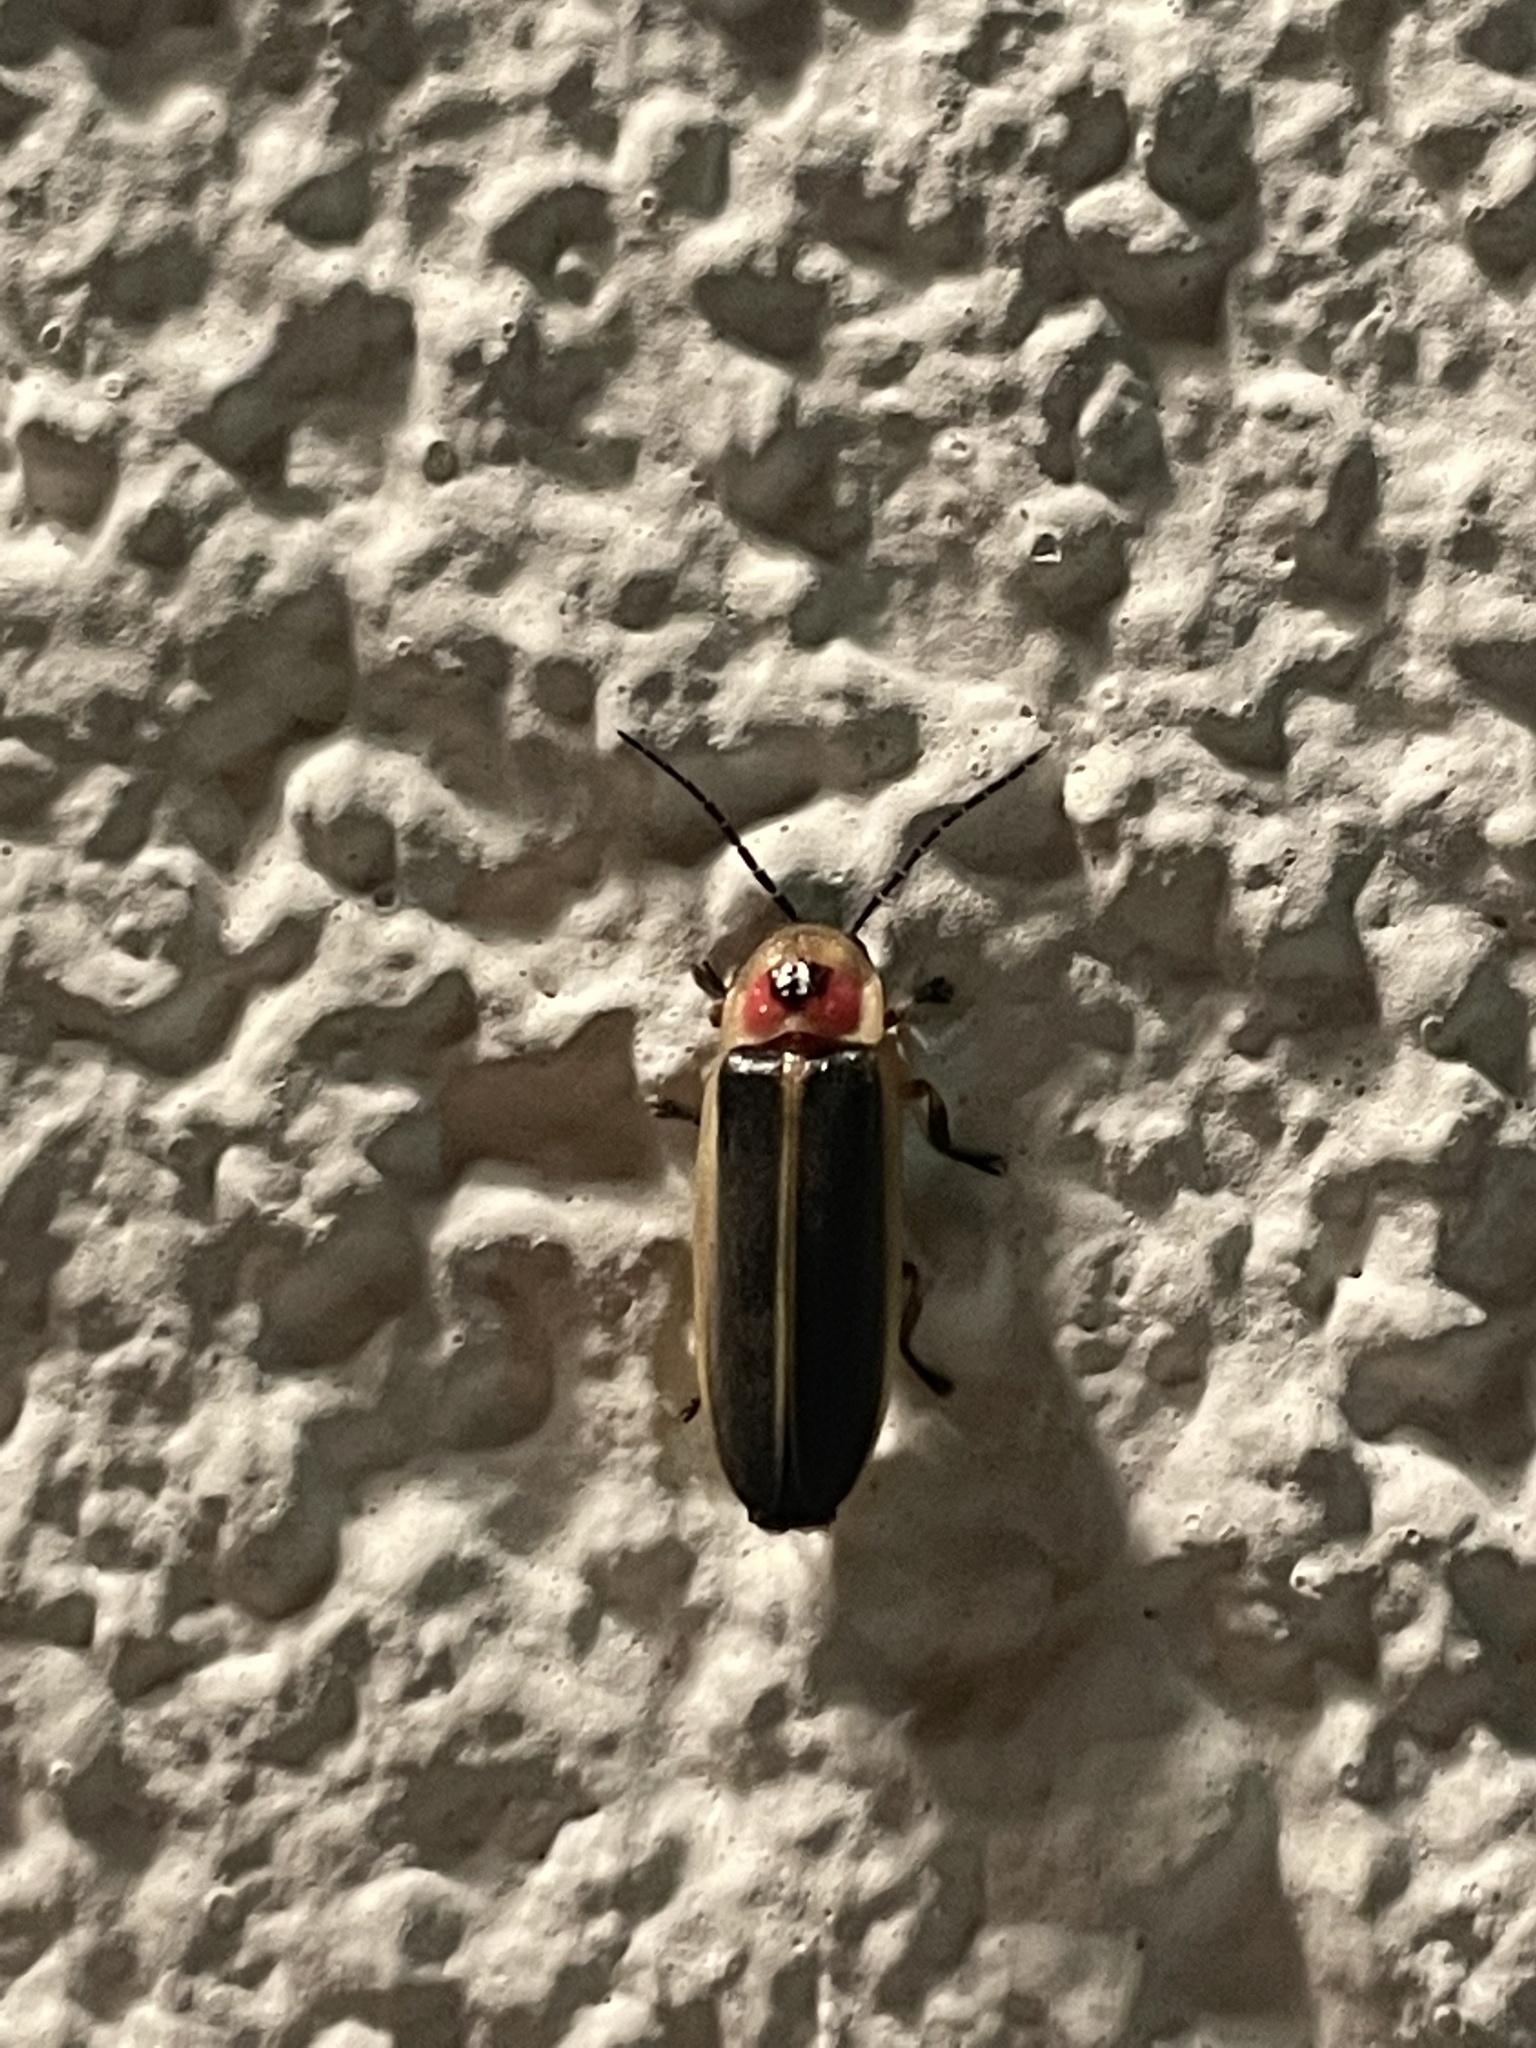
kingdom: Animalia
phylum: Arthropoda
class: Insecta
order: Coleoptera
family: Lampyridae
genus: Photinus
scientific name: Photinus pyralis
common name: Big dipper firefly
